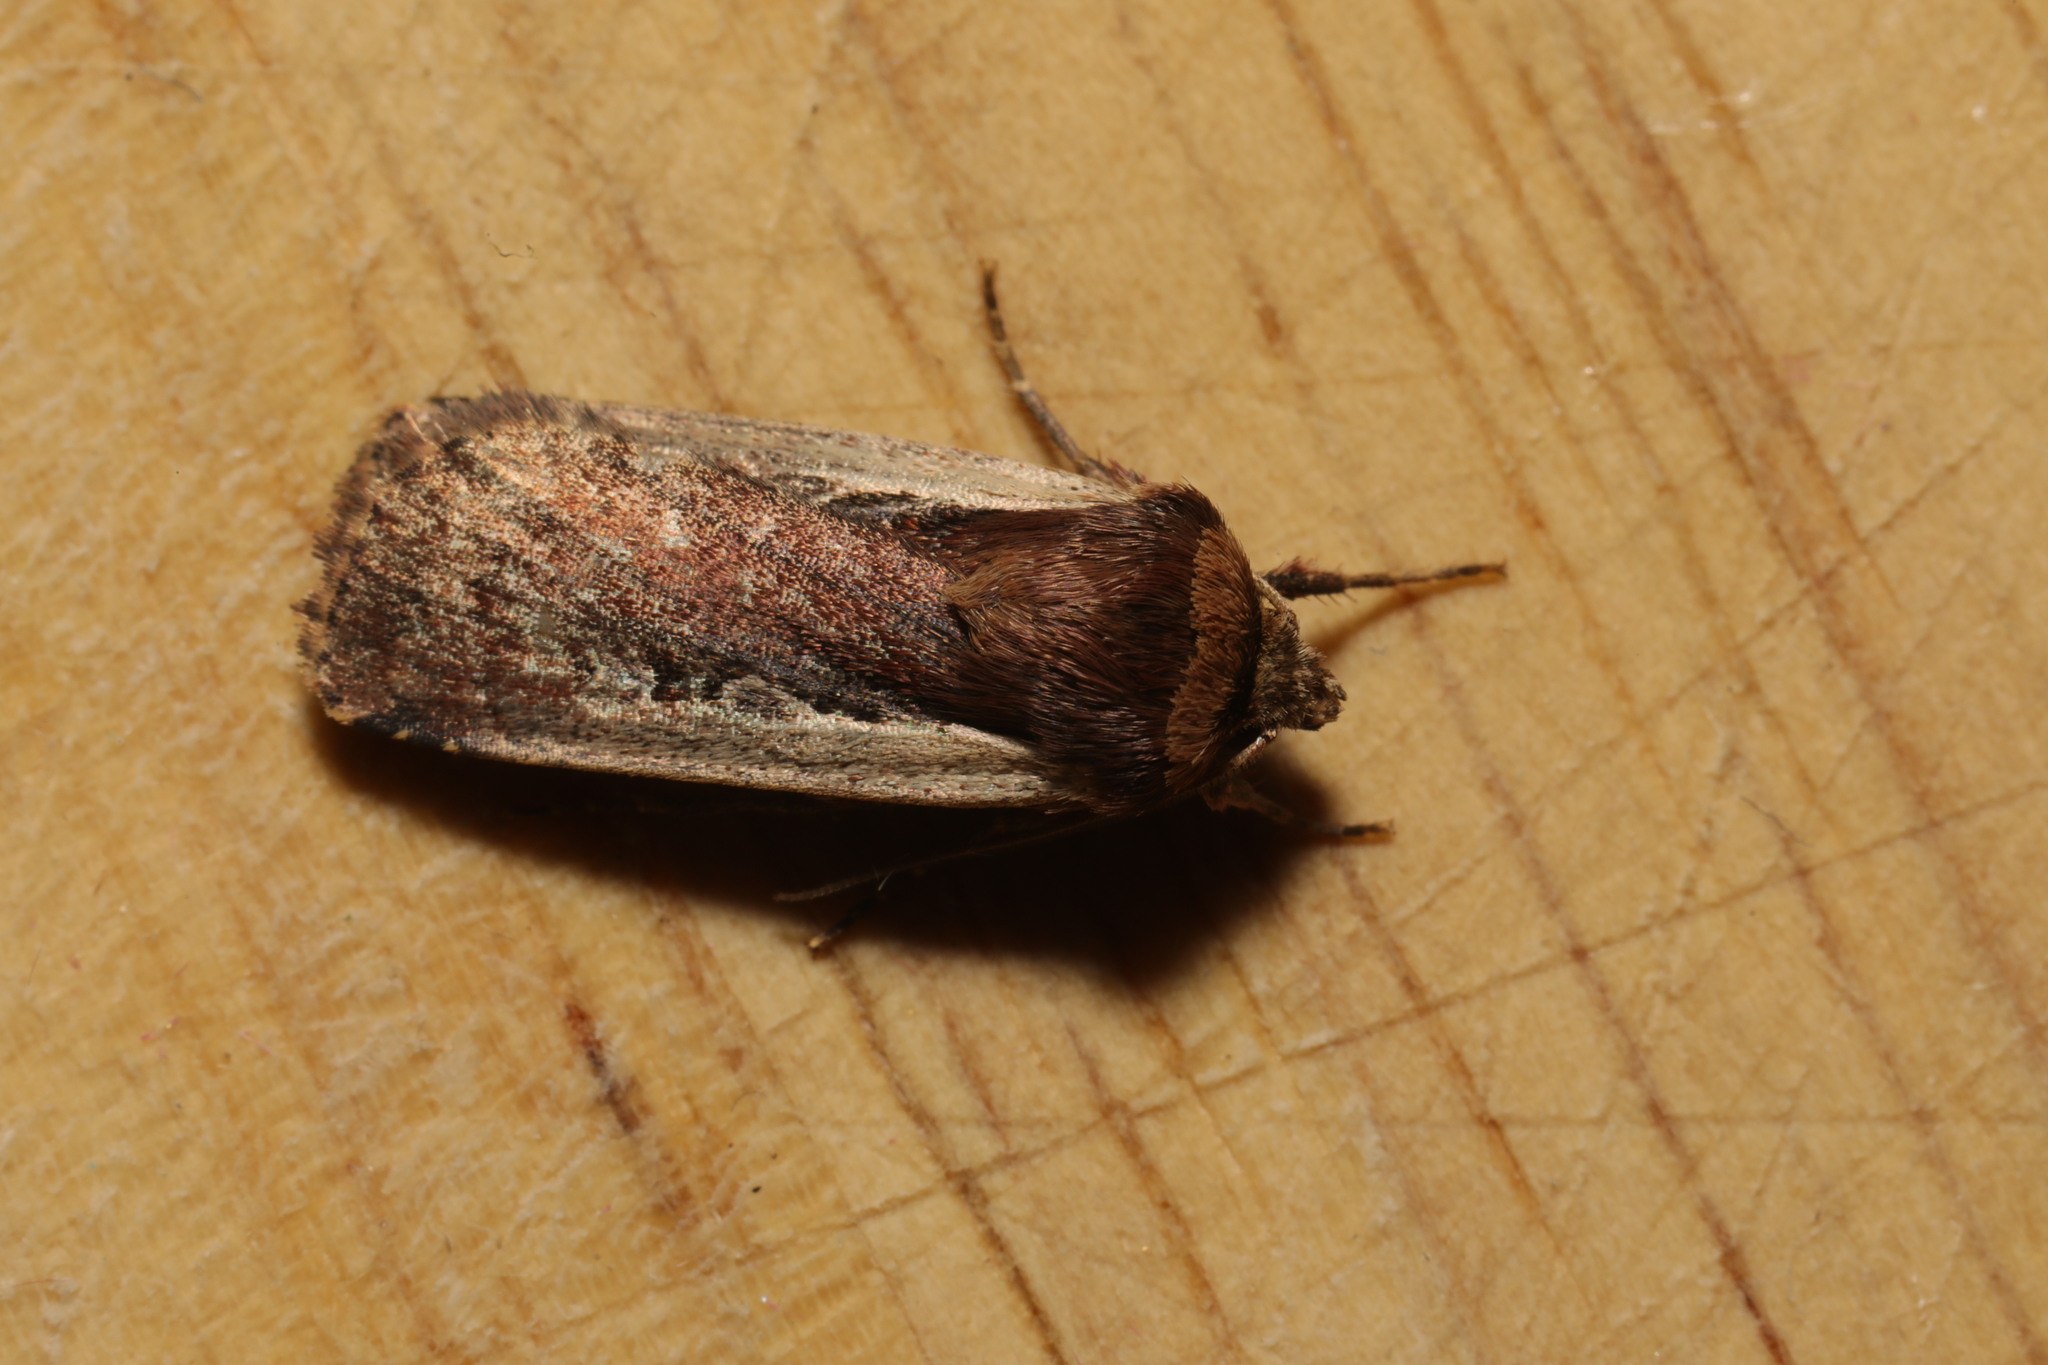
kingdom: Animalia
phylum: Arthropoda
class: Insecta
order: Lepidoptera
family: Noctuidae
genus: Ochropleura
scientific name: Ochropleura plecta
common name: Flame shoulder
